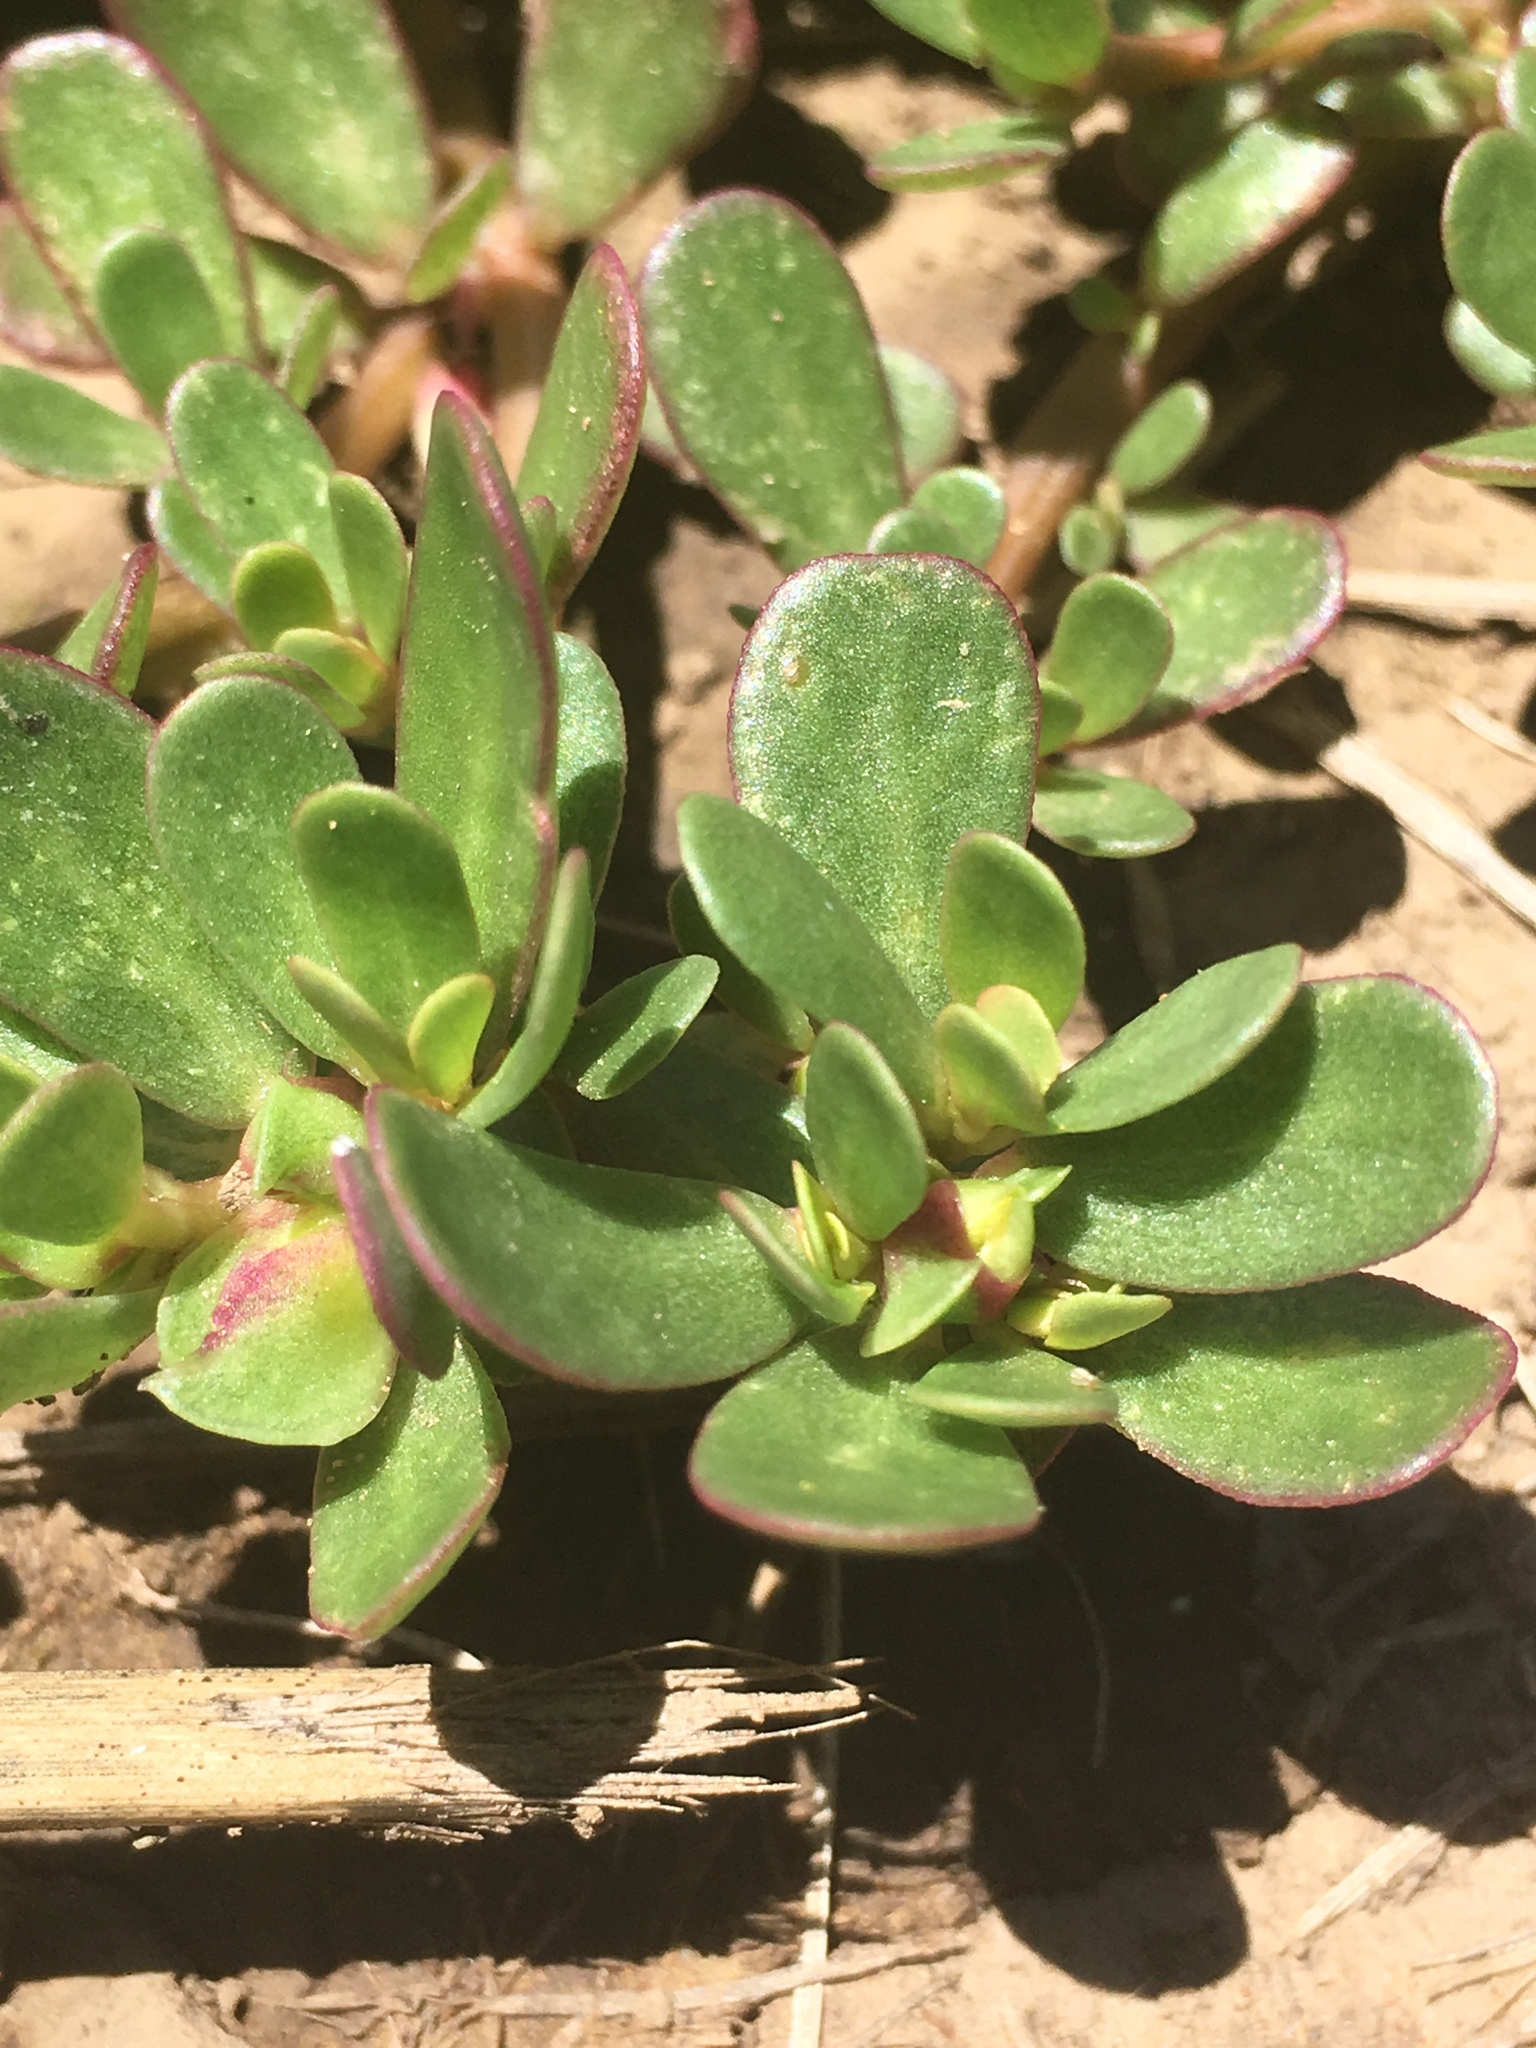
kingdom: Plantae
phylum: Tracheophyta
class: Magnoliopsida
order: Caryophyllales
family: Portulacaceae
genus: Portulaca
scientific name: Portulaca oleracea
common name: Common purslane
